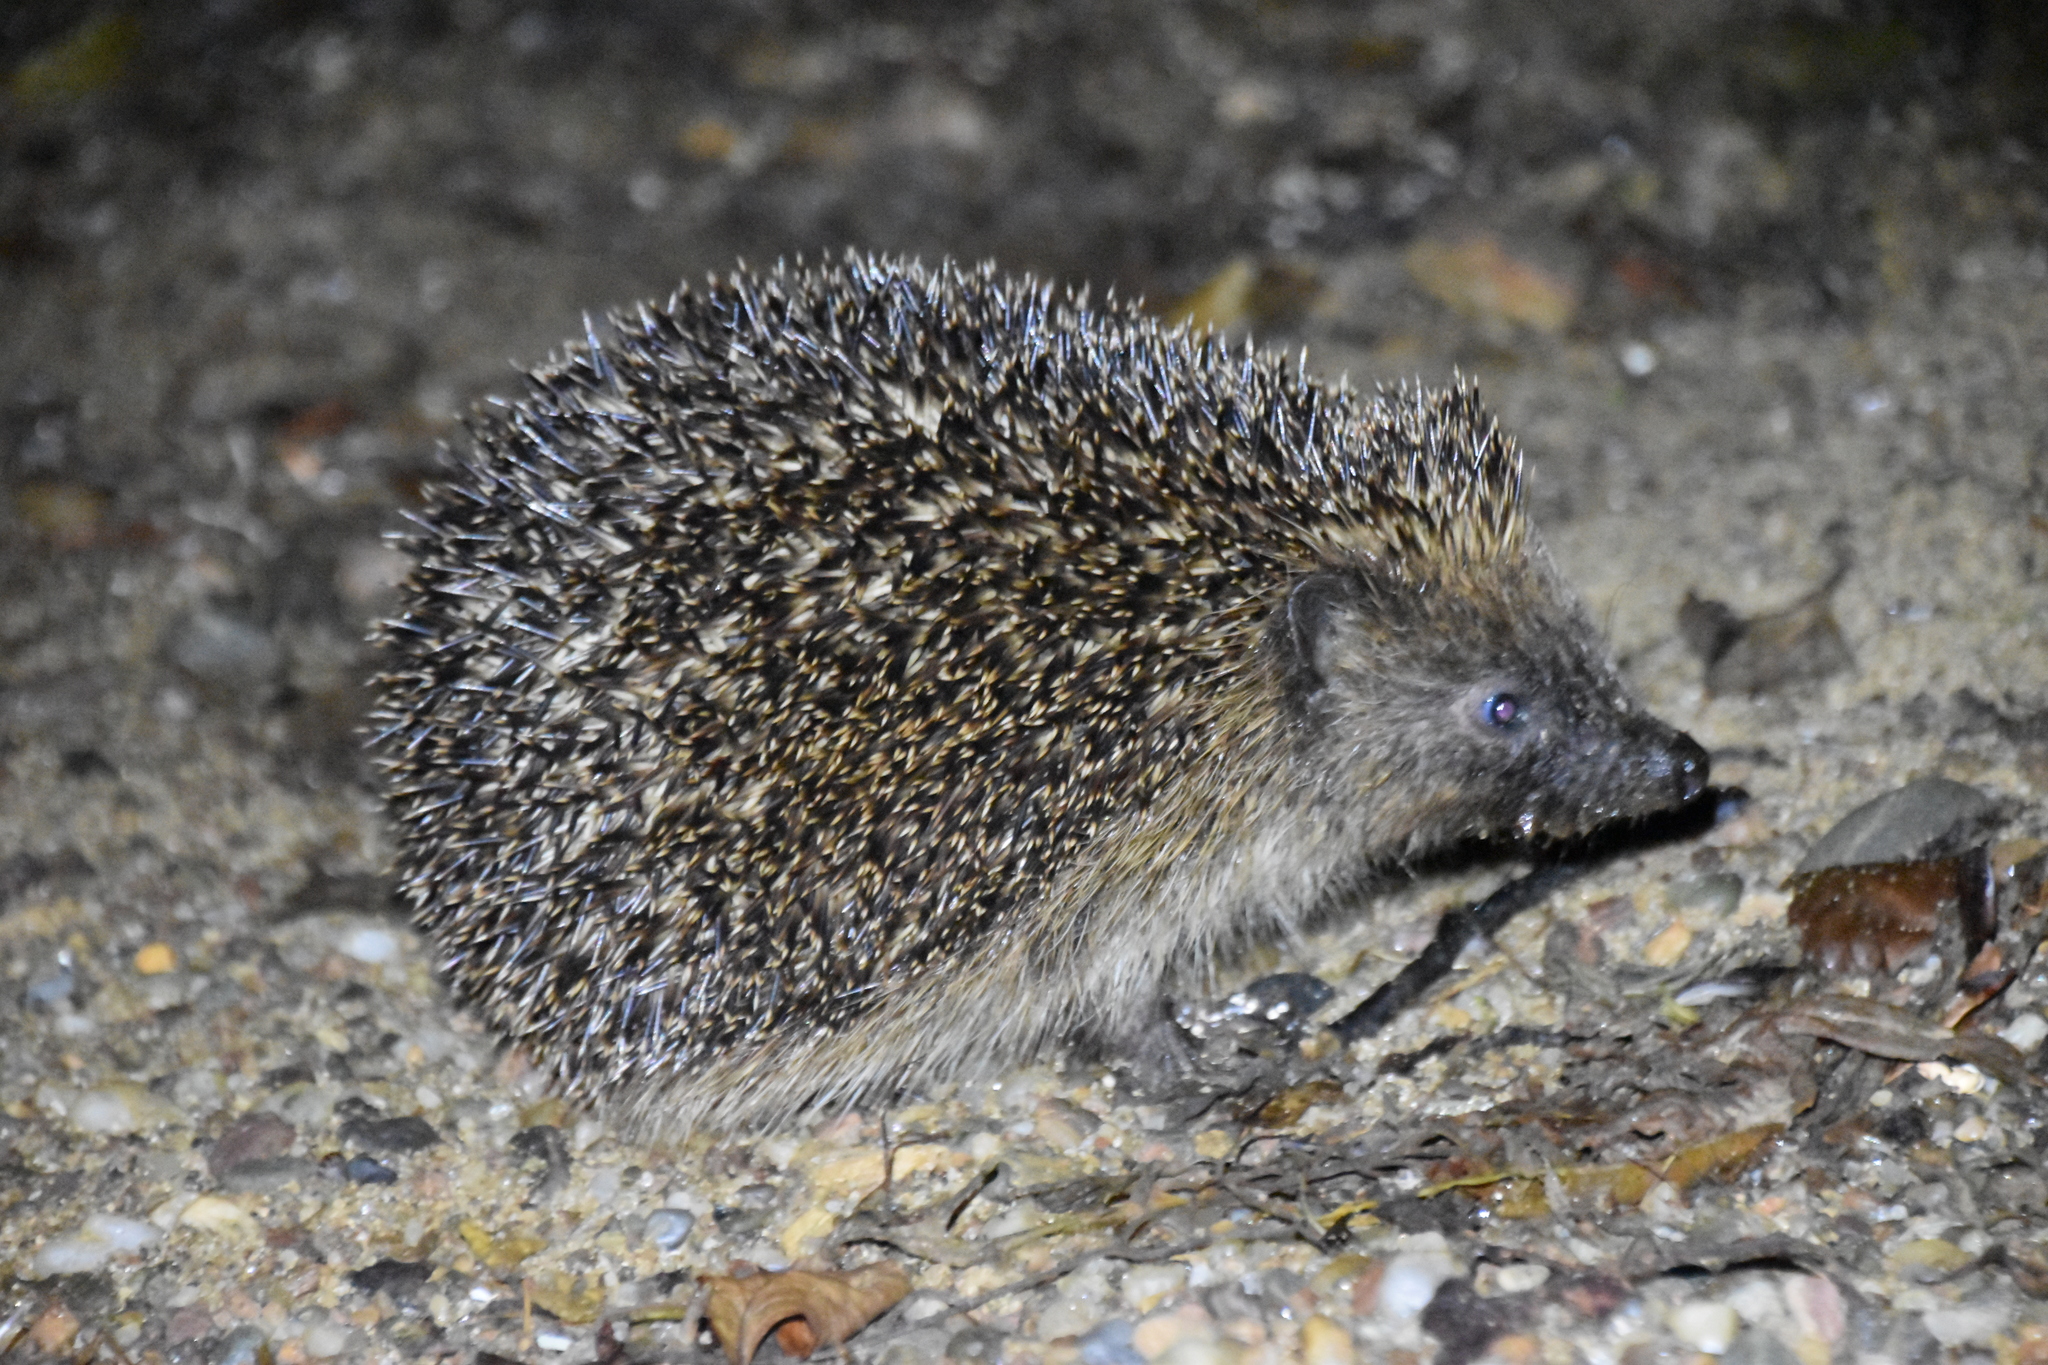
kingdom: Animalia
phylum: Chordata
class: Mammalia
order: Erinaceomorpha
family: Erinaceidae
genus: Erinaceus
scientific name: Erinaceus europaeus
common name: West european hedgehog
